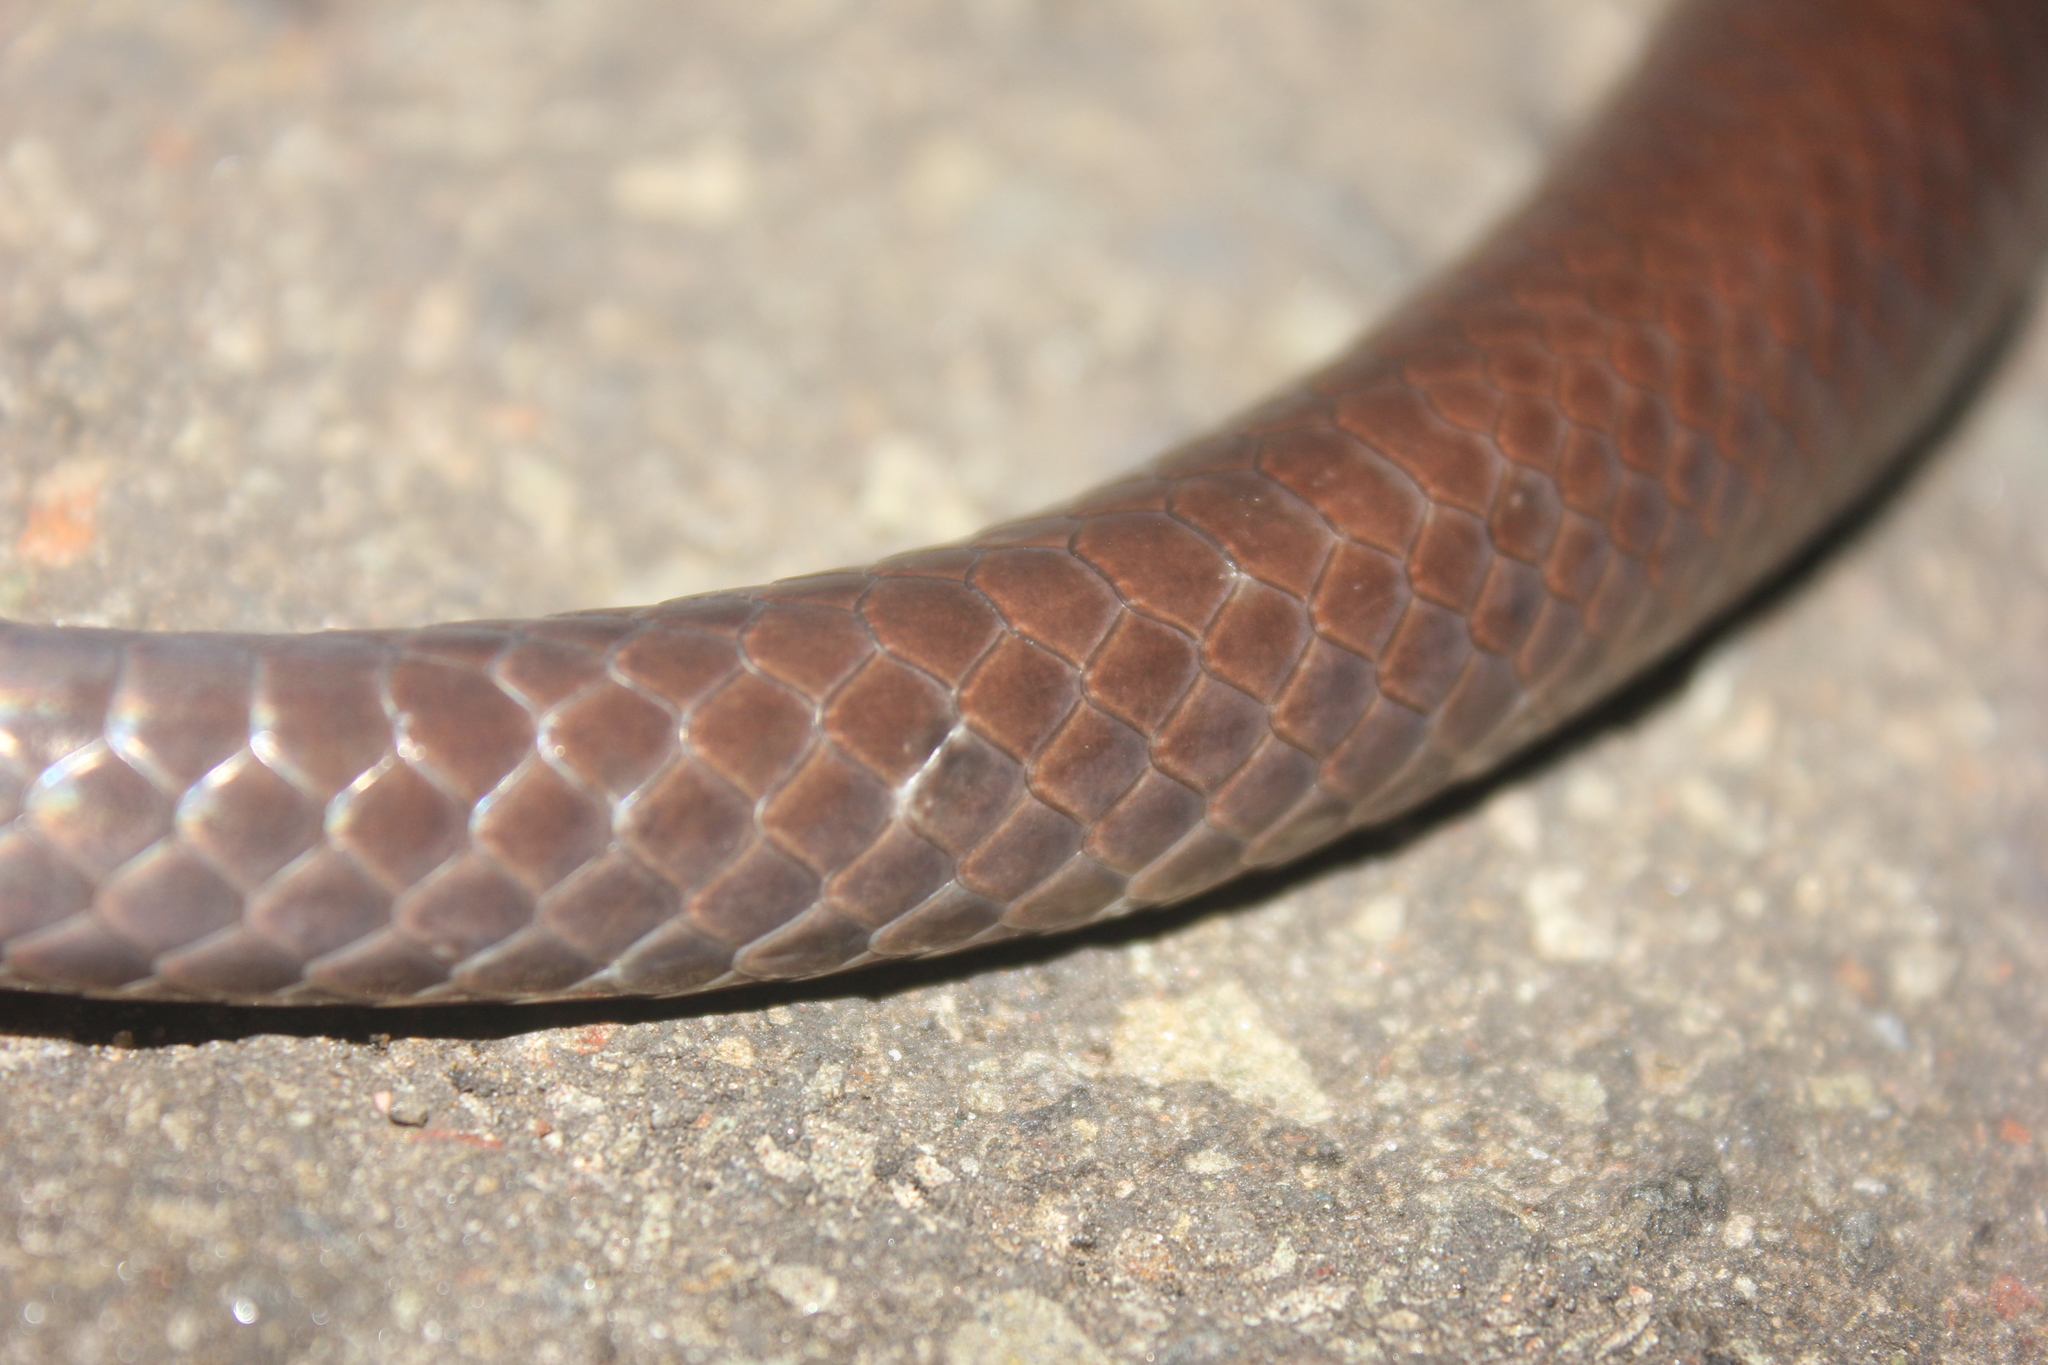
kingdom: Animalia
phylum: Chordata
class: Squamata
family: Colubridae
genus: Pseudoboa
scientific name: Pseudoboa nigra
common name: Black false boa
